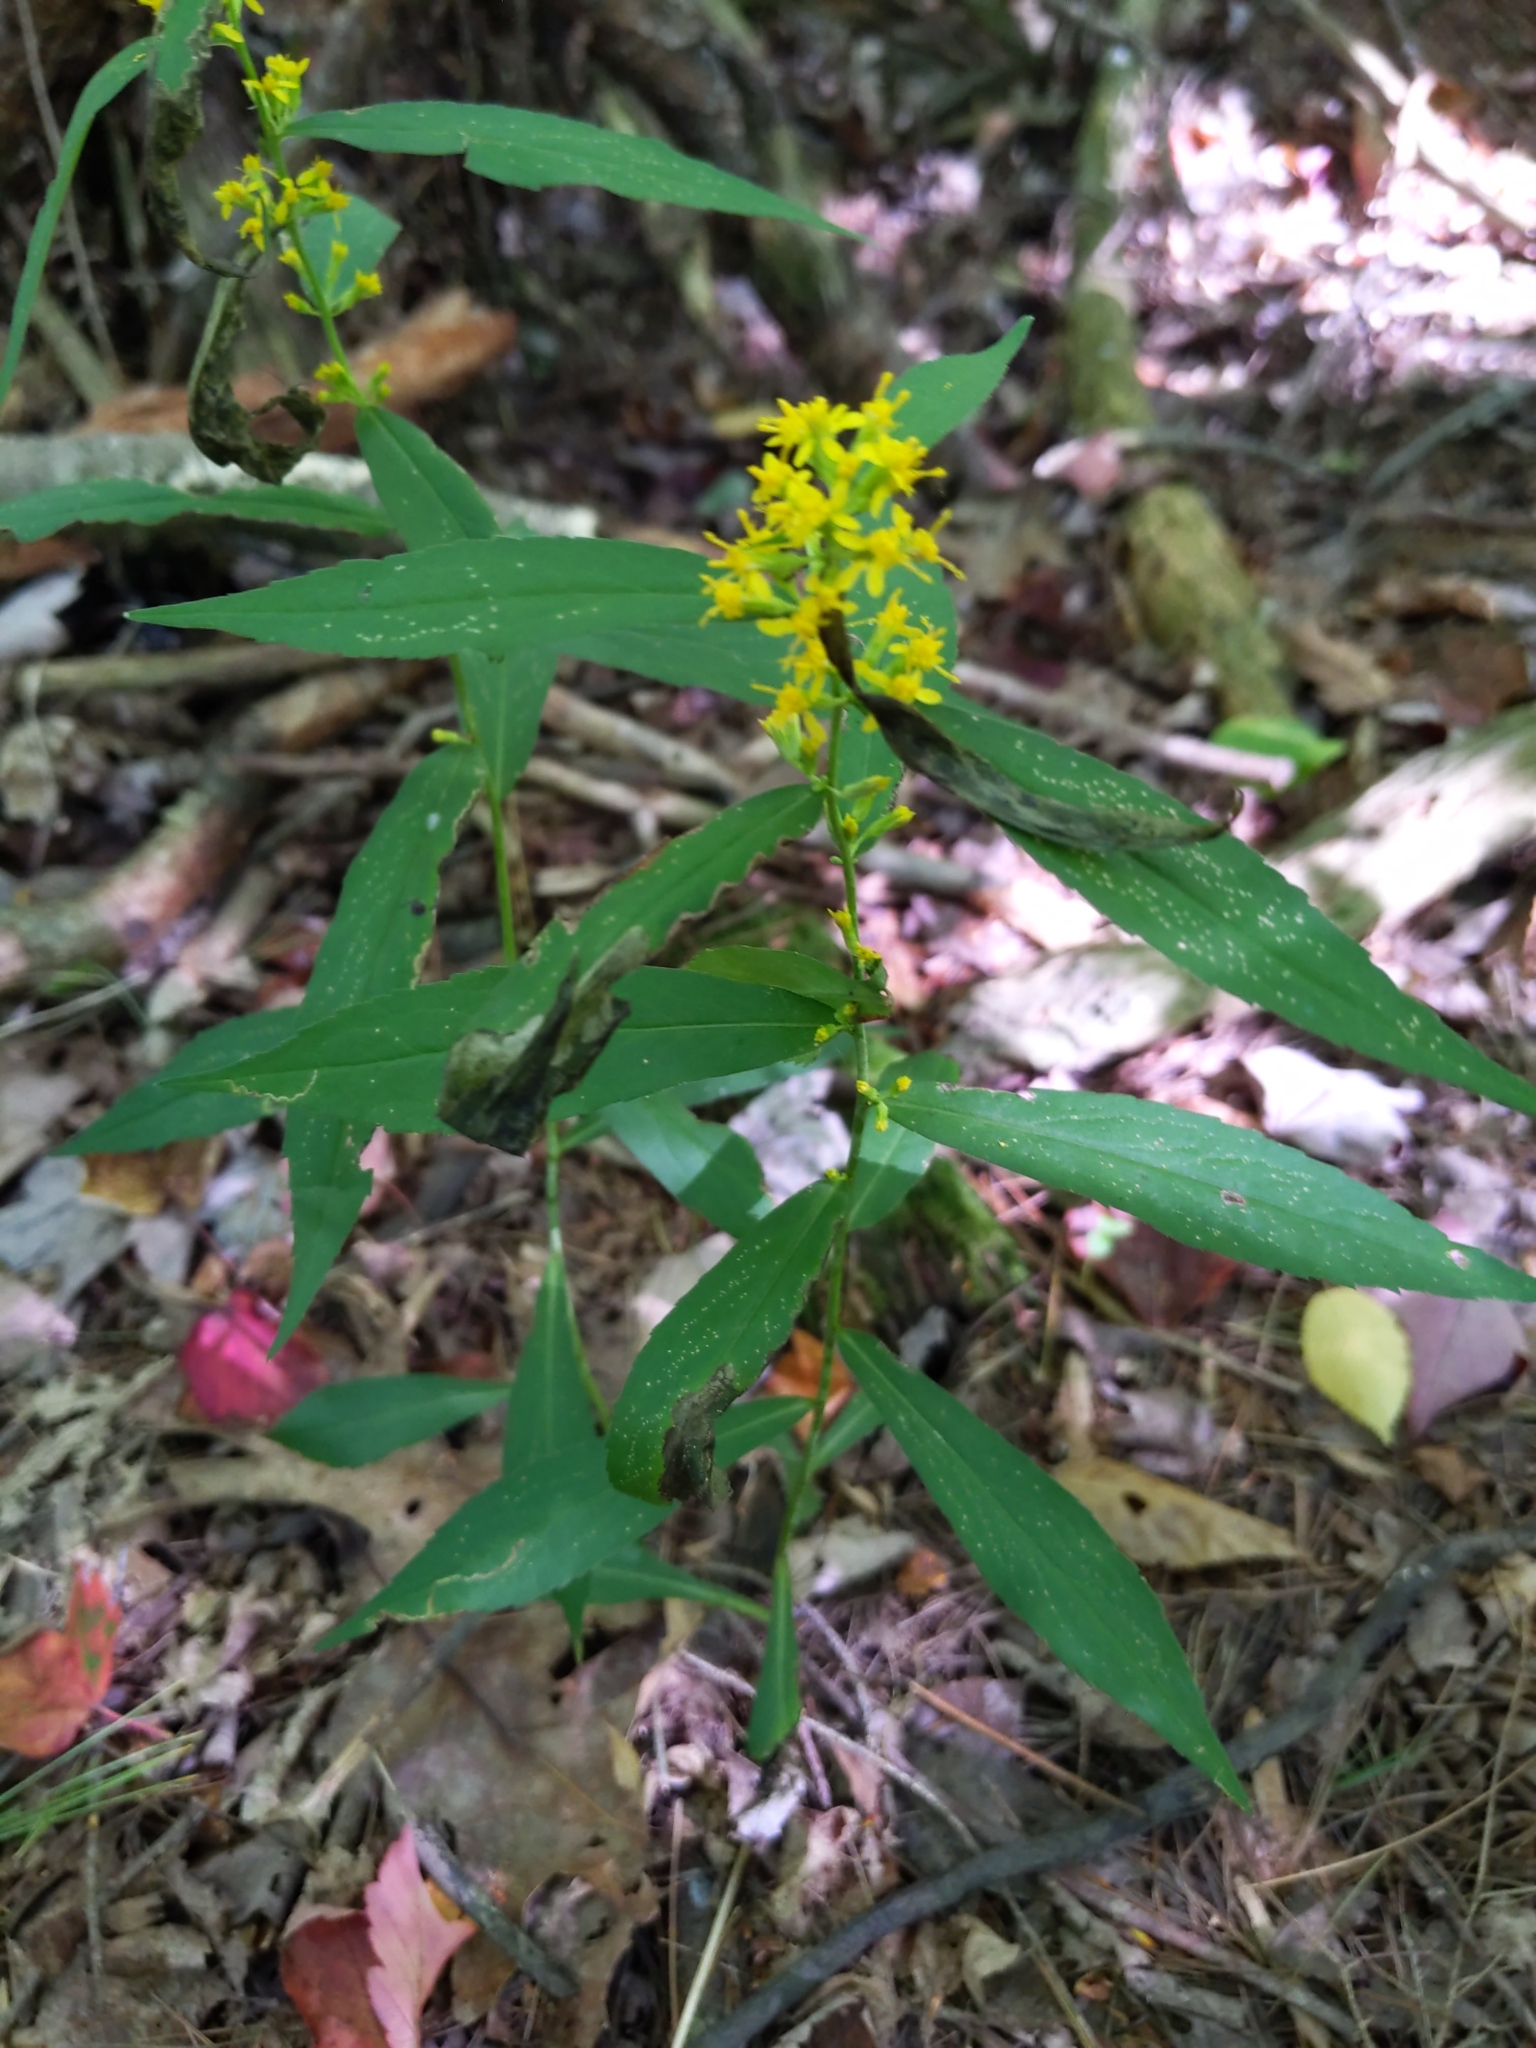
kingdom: Plantae
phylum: Tracheophyta
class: Magnoliopsida
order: Asterales
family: Asteraceae
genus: Solidago
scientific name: Solidago caesia
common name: Woodland goldenrod
